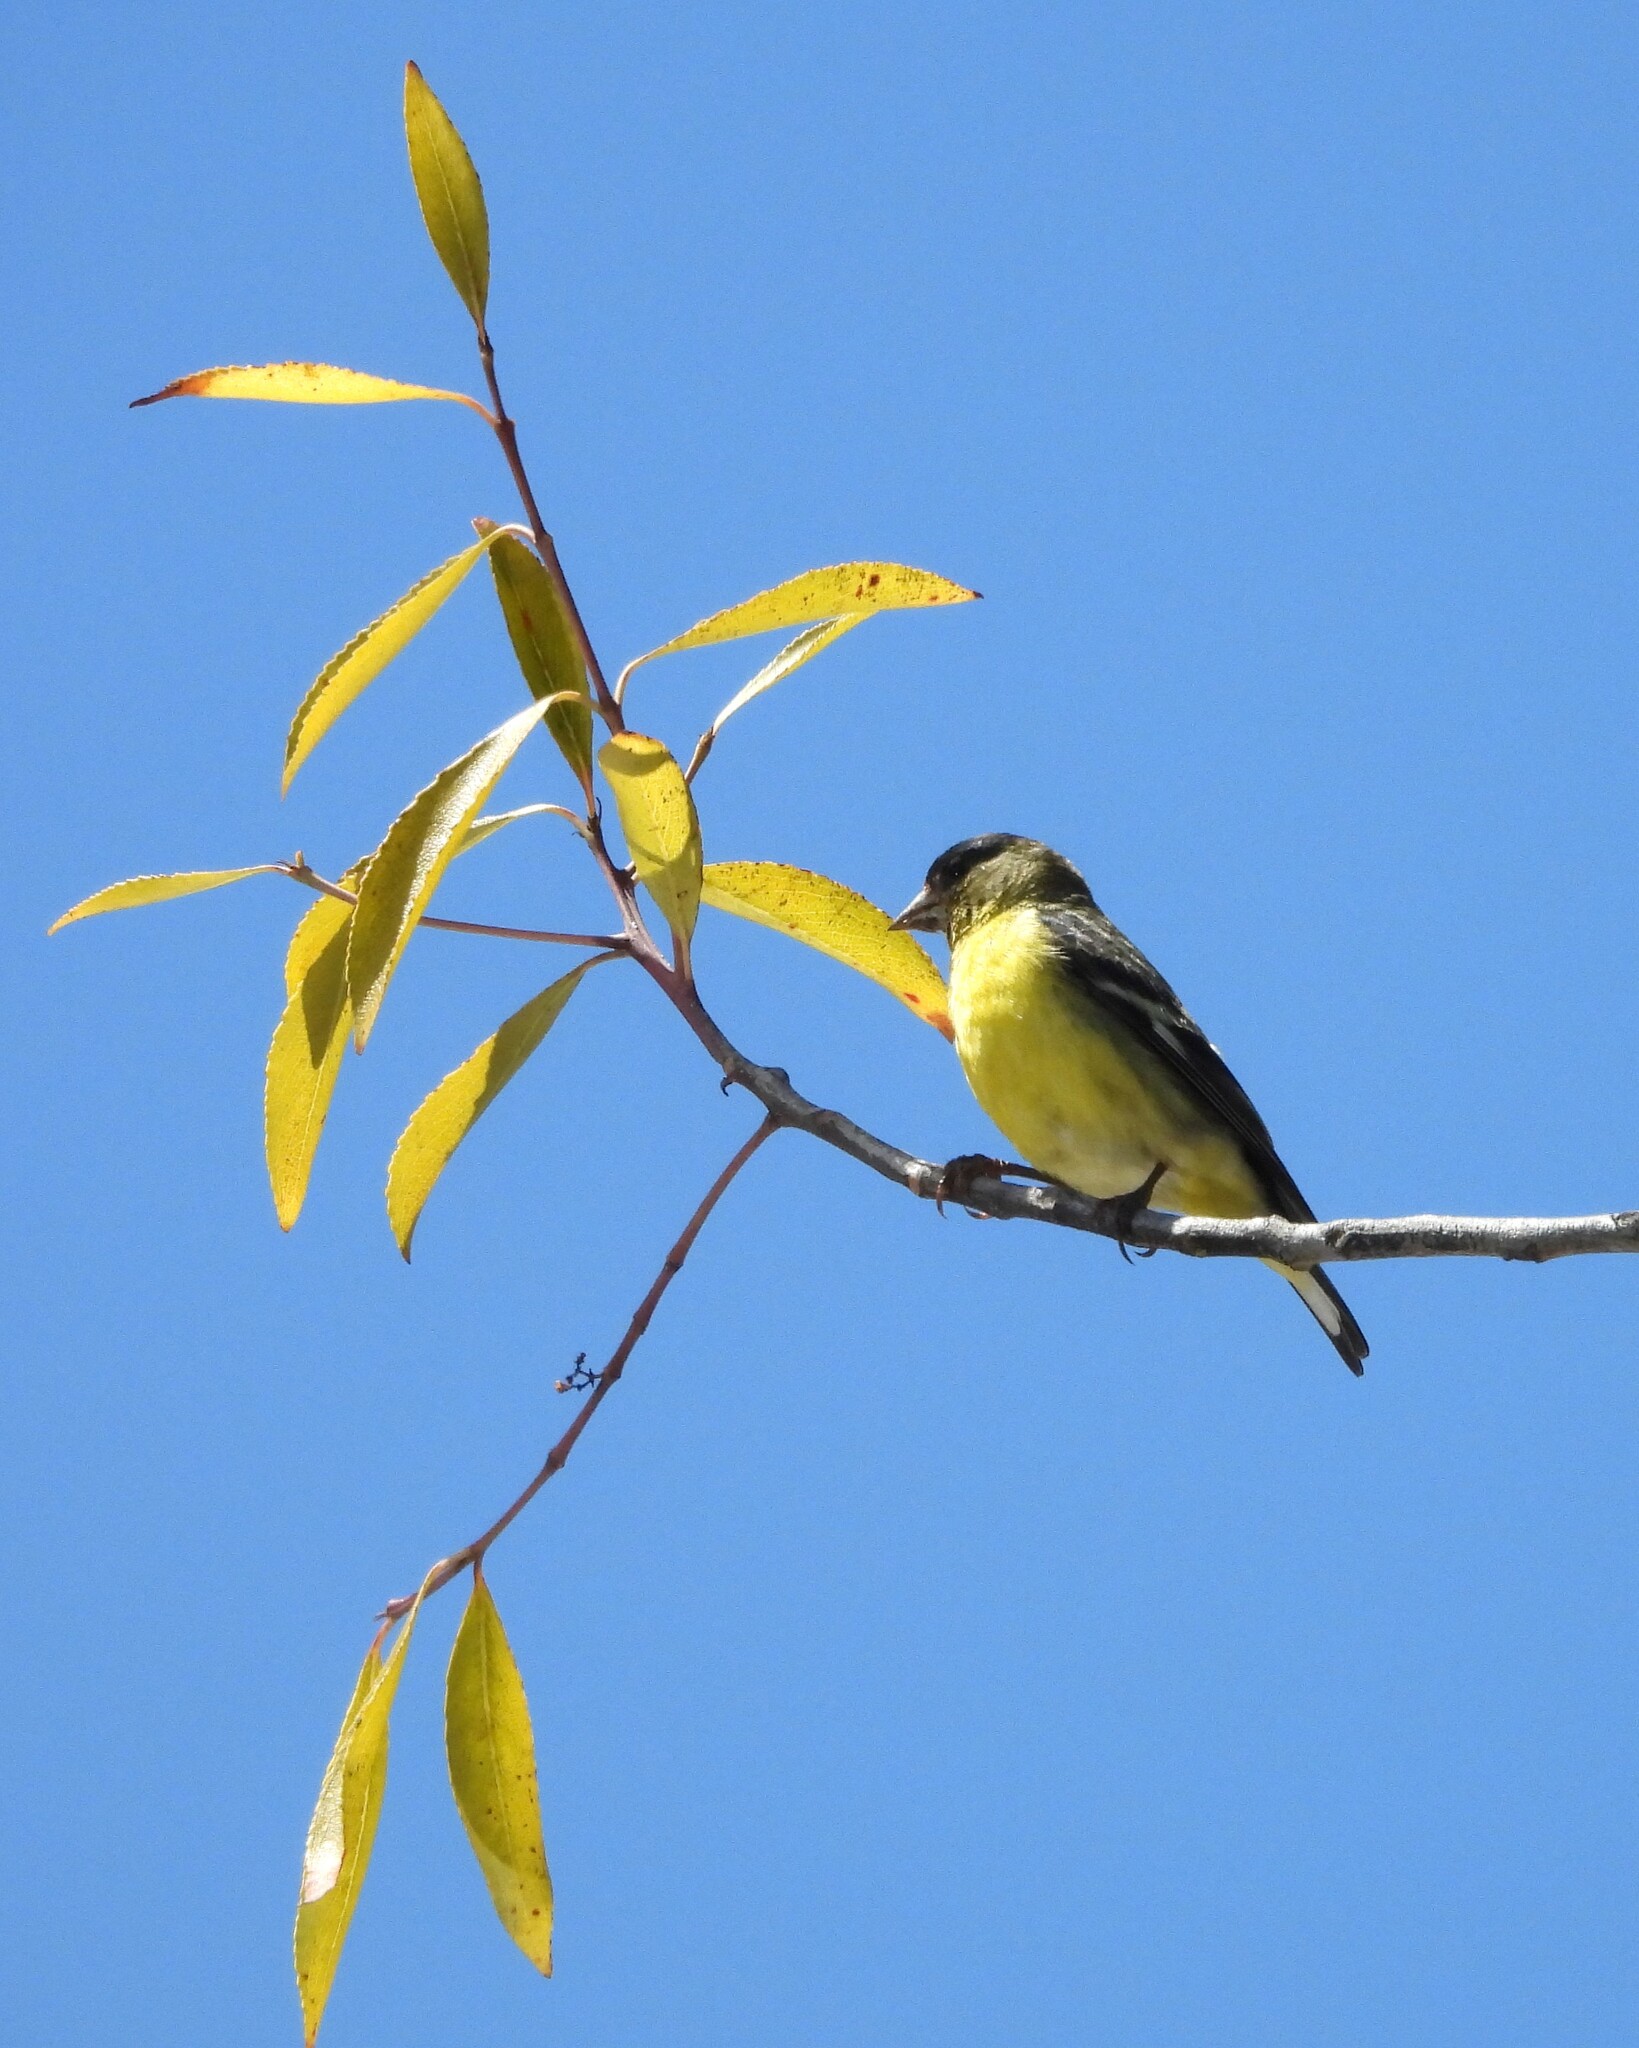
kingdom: Animalia
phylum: Chordata
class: Aves
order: Passeriformes
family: Fringillidae
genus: Spinus
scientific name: Spinus psaltria
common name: Lesser goldfinch
